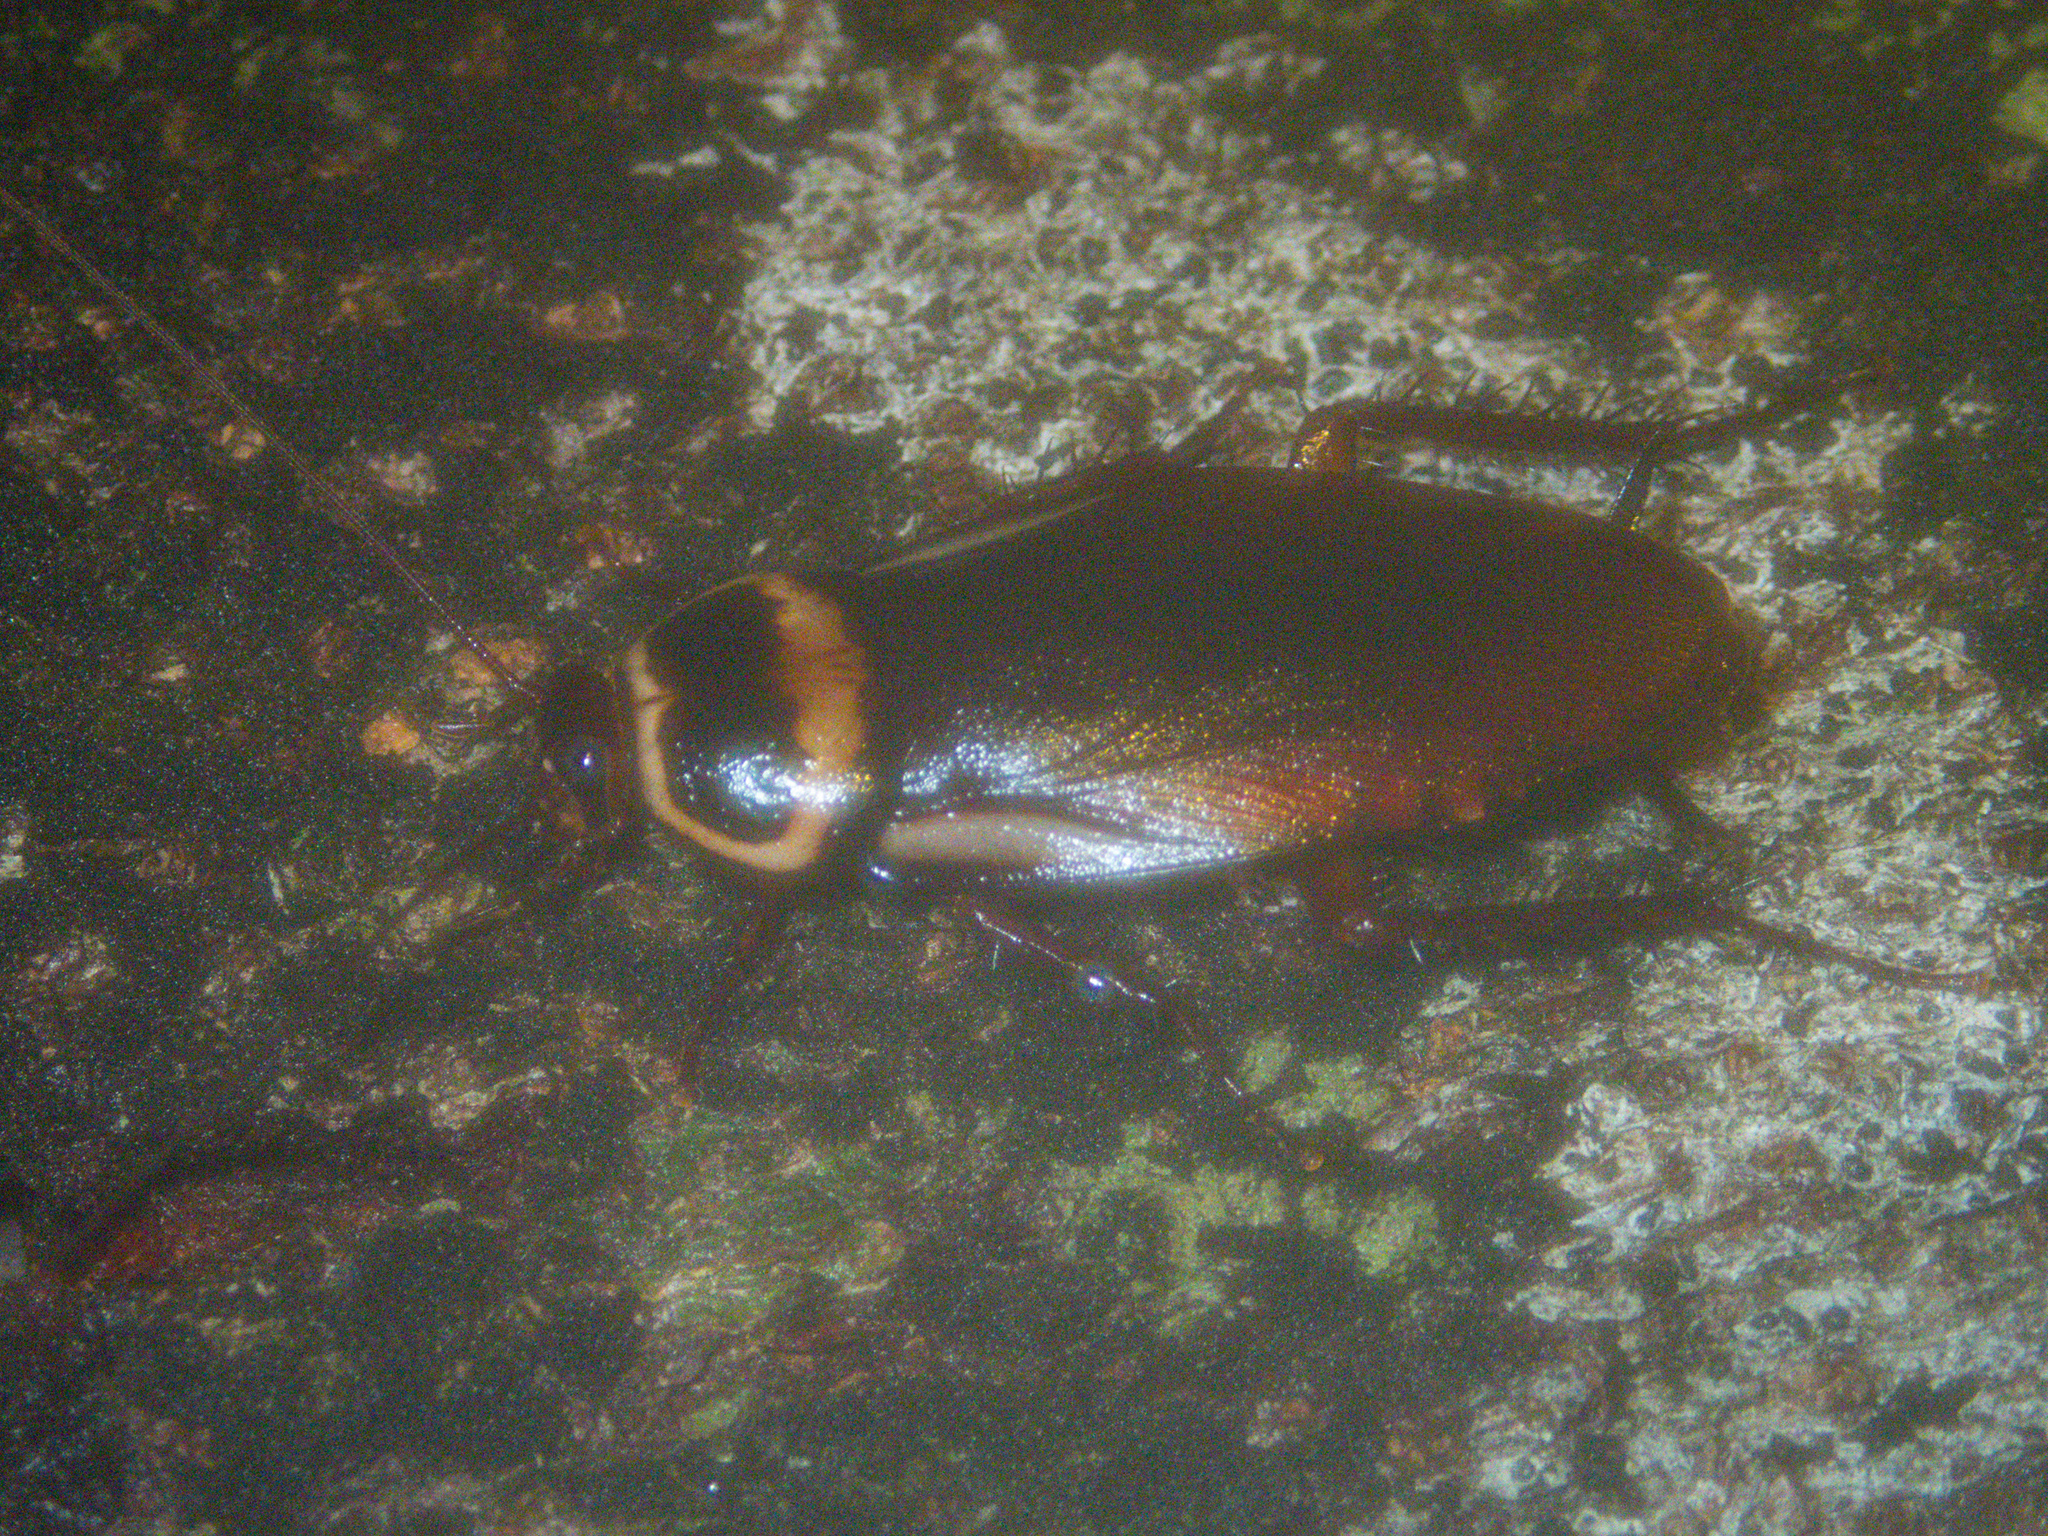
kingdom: Animalia
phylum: Arthropoda
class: Insecta
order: Blattodea
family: Blattidae
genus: Periplaneta
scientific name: Periplaneta australasiae
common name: Australian cockroach
